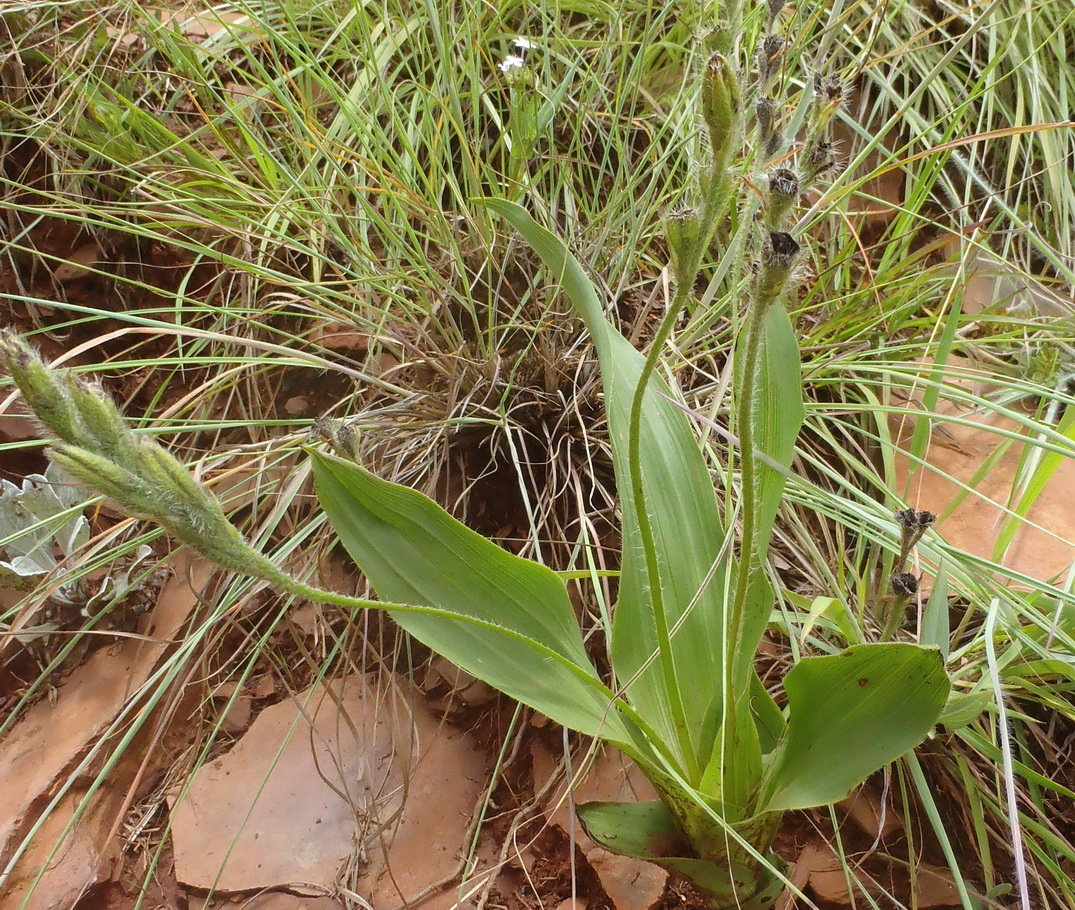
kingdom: Plantae
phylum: Tracheophyta
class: Liliopsida
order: Asparagales
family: Hypoxidaceae
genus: Hypoxis
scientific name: Hypoxis galpinii
